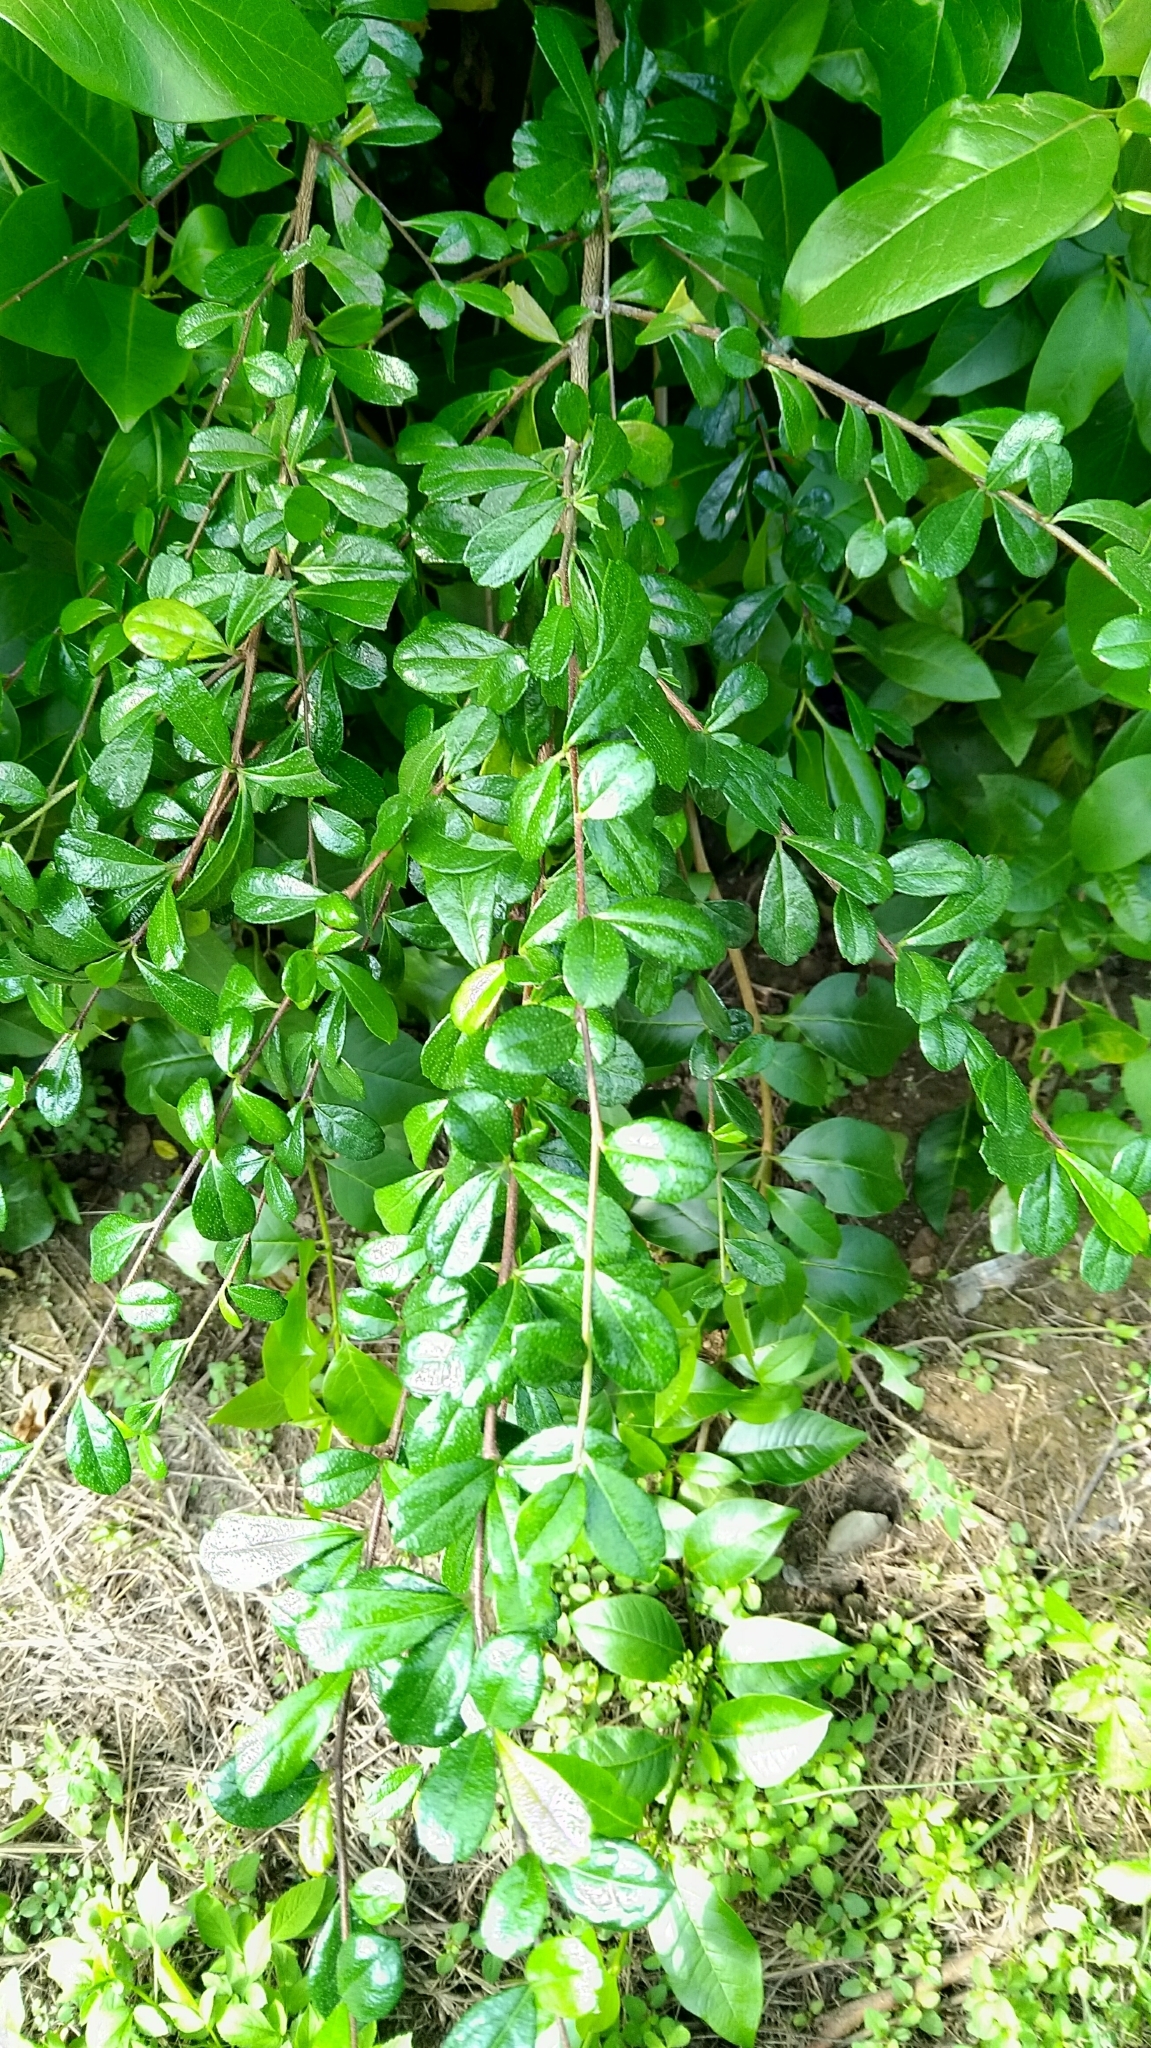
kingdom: Plantae
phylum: Tracheophyta
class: Magnoliopsida
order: Boraginales
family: Ehretiaceae
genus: Ehretia
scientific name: Ehretia microphylla
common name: Fukien-tea
